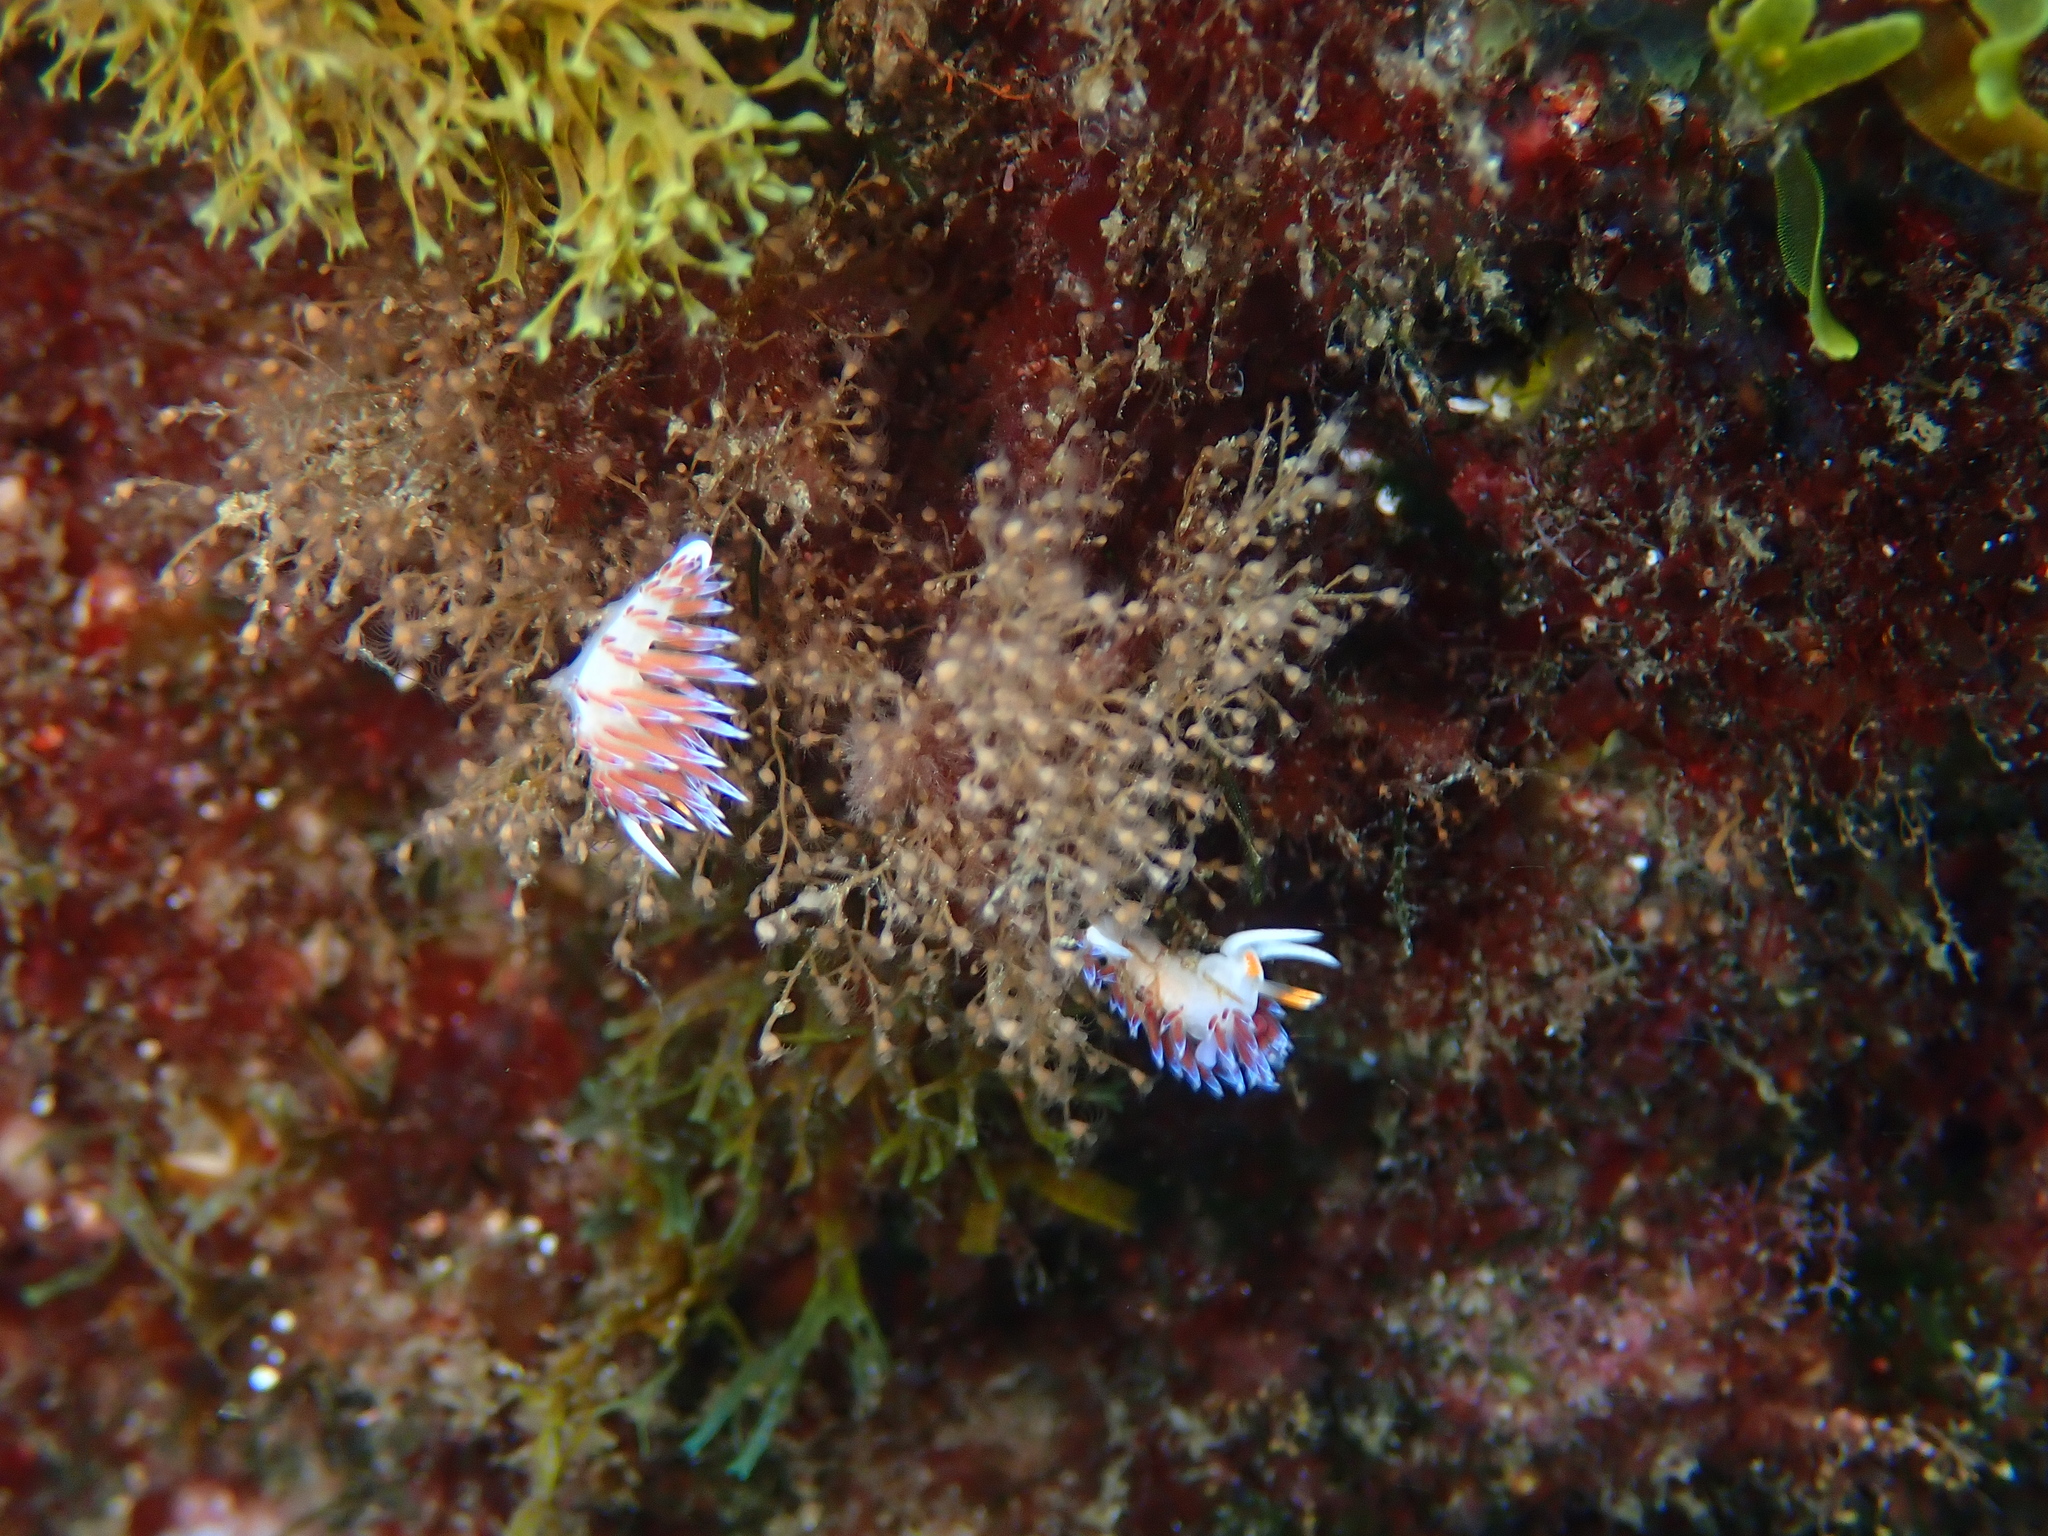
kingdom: Animalia
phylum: Mollusca
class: Gastropoda
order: Nudibranchia
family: Facelinidae
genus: Cratena
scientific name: Cratena peregrina
